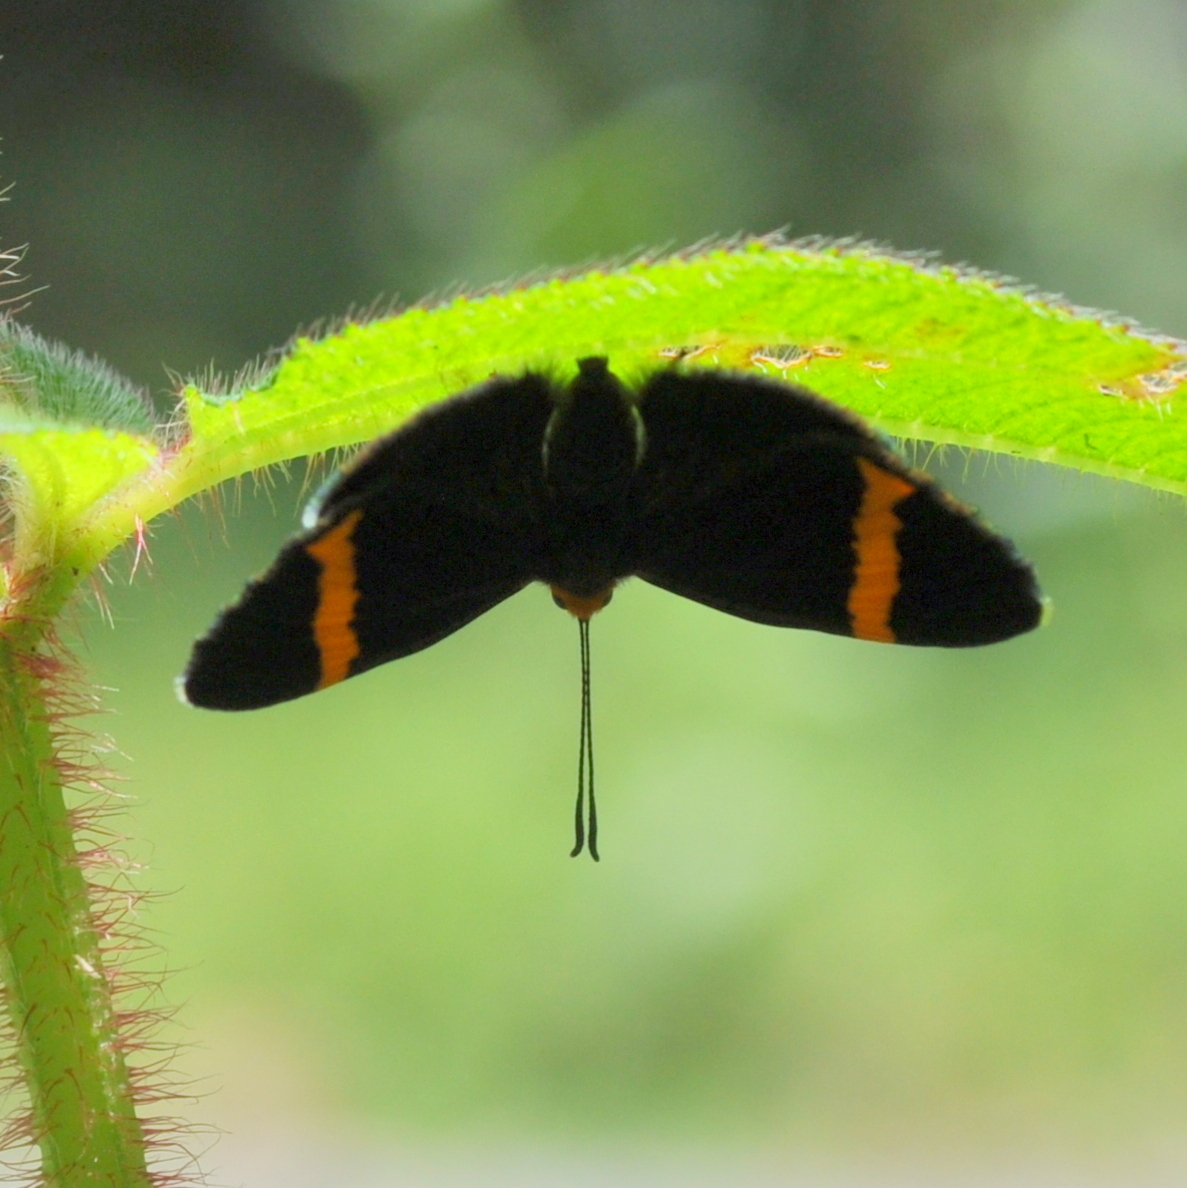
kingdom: Animalia
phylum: Arthropoda
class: Insecta
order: Lepidoptera
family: Lycaenidae
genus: Stichelia
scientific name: Stichelia bocchoris
